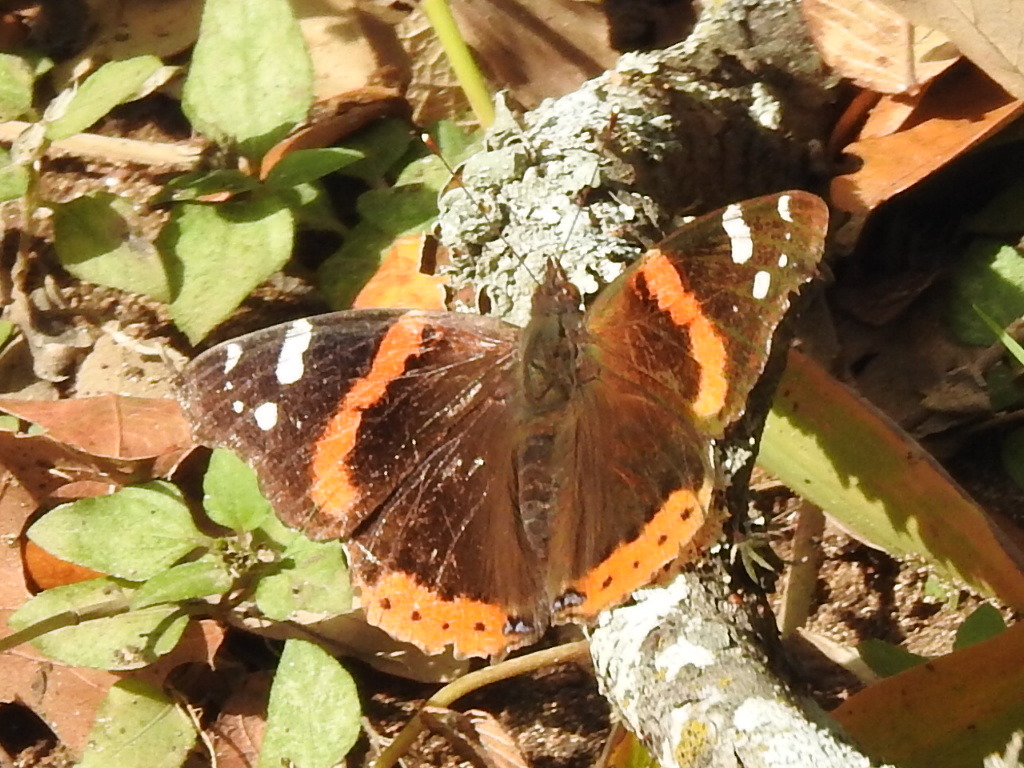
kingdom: Animalia
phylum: Arthropoda
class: Insecta
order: Lepidoptera
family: Nymphalidae
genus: Vanessa
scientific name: Vanessa atalanta
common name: Red admiral
